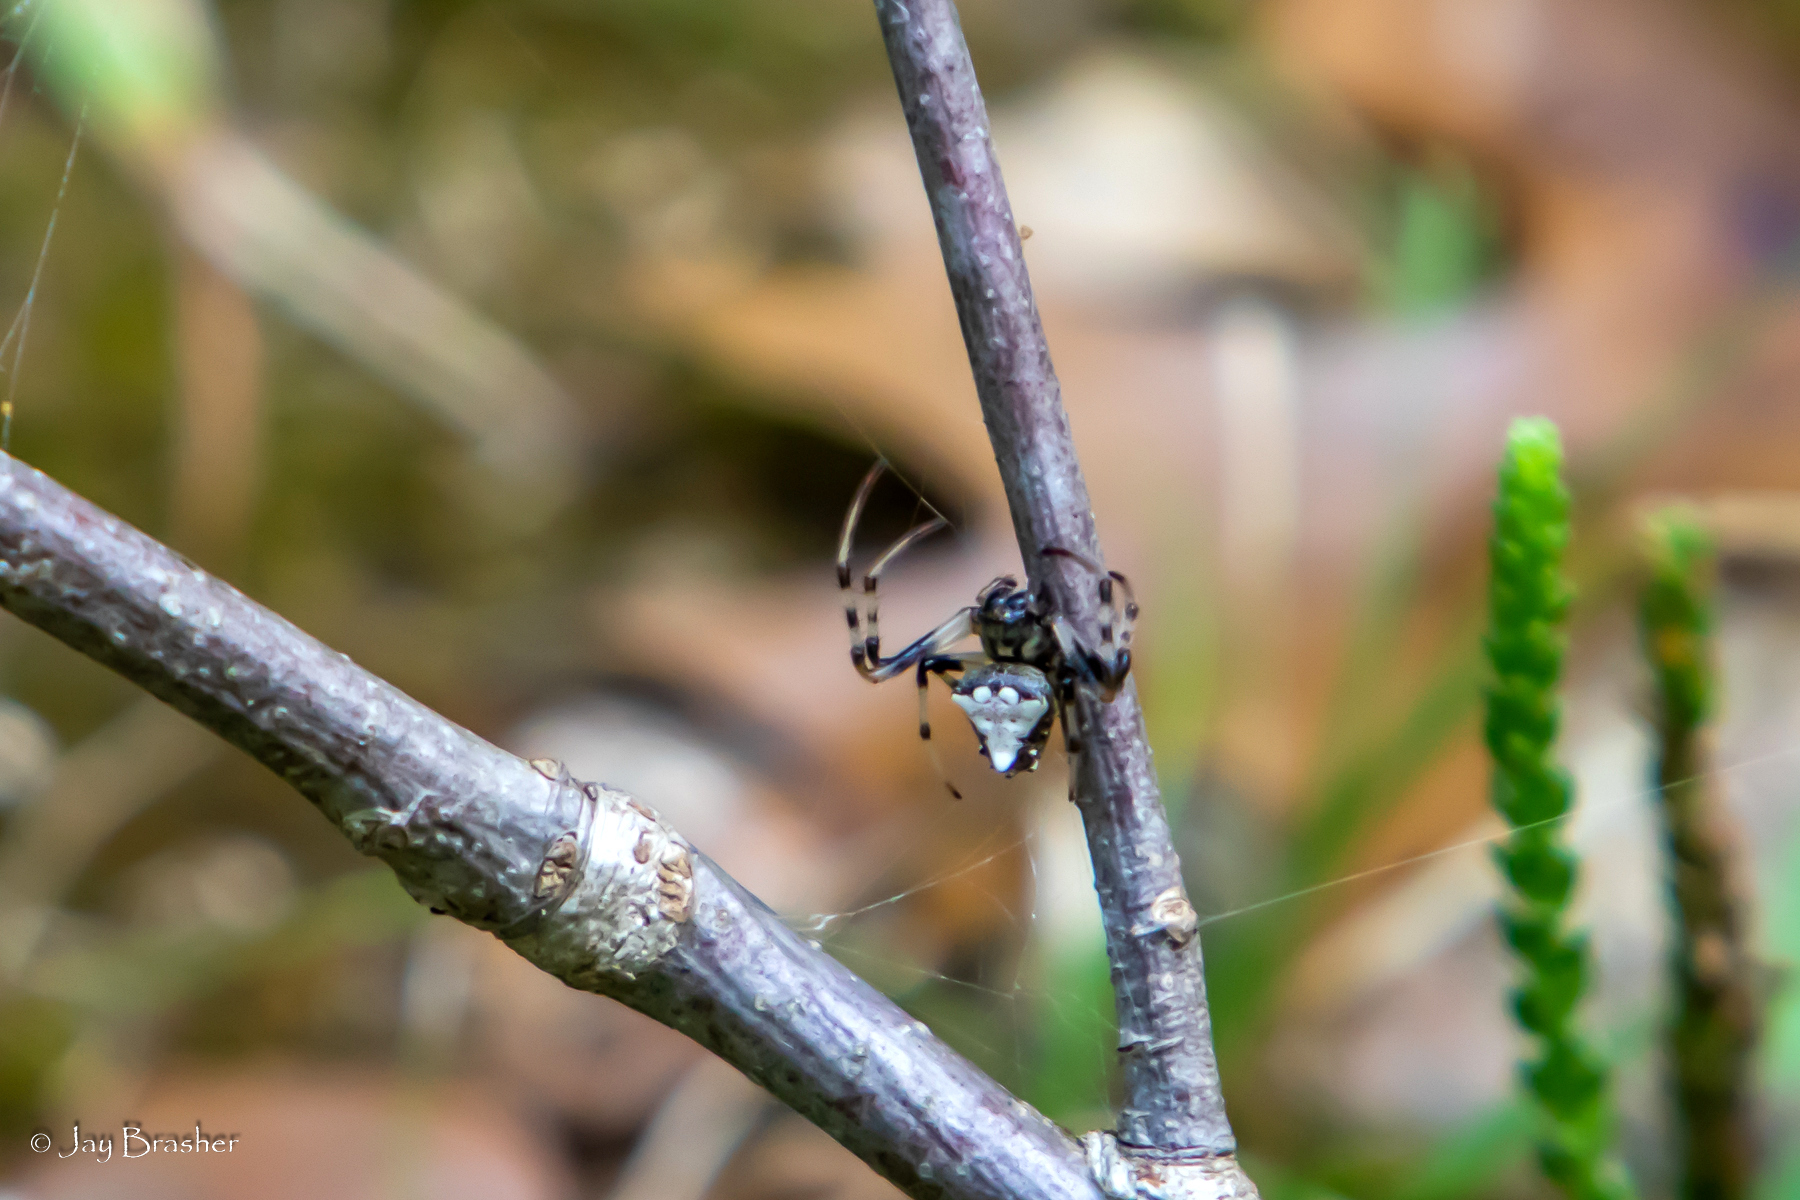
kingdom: Animalia
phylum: Arthropoda
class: Arachnida
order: Araneae
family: Araneidae
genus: Verrucosa
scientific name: Verrucosa arenata
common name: Orb weavers
